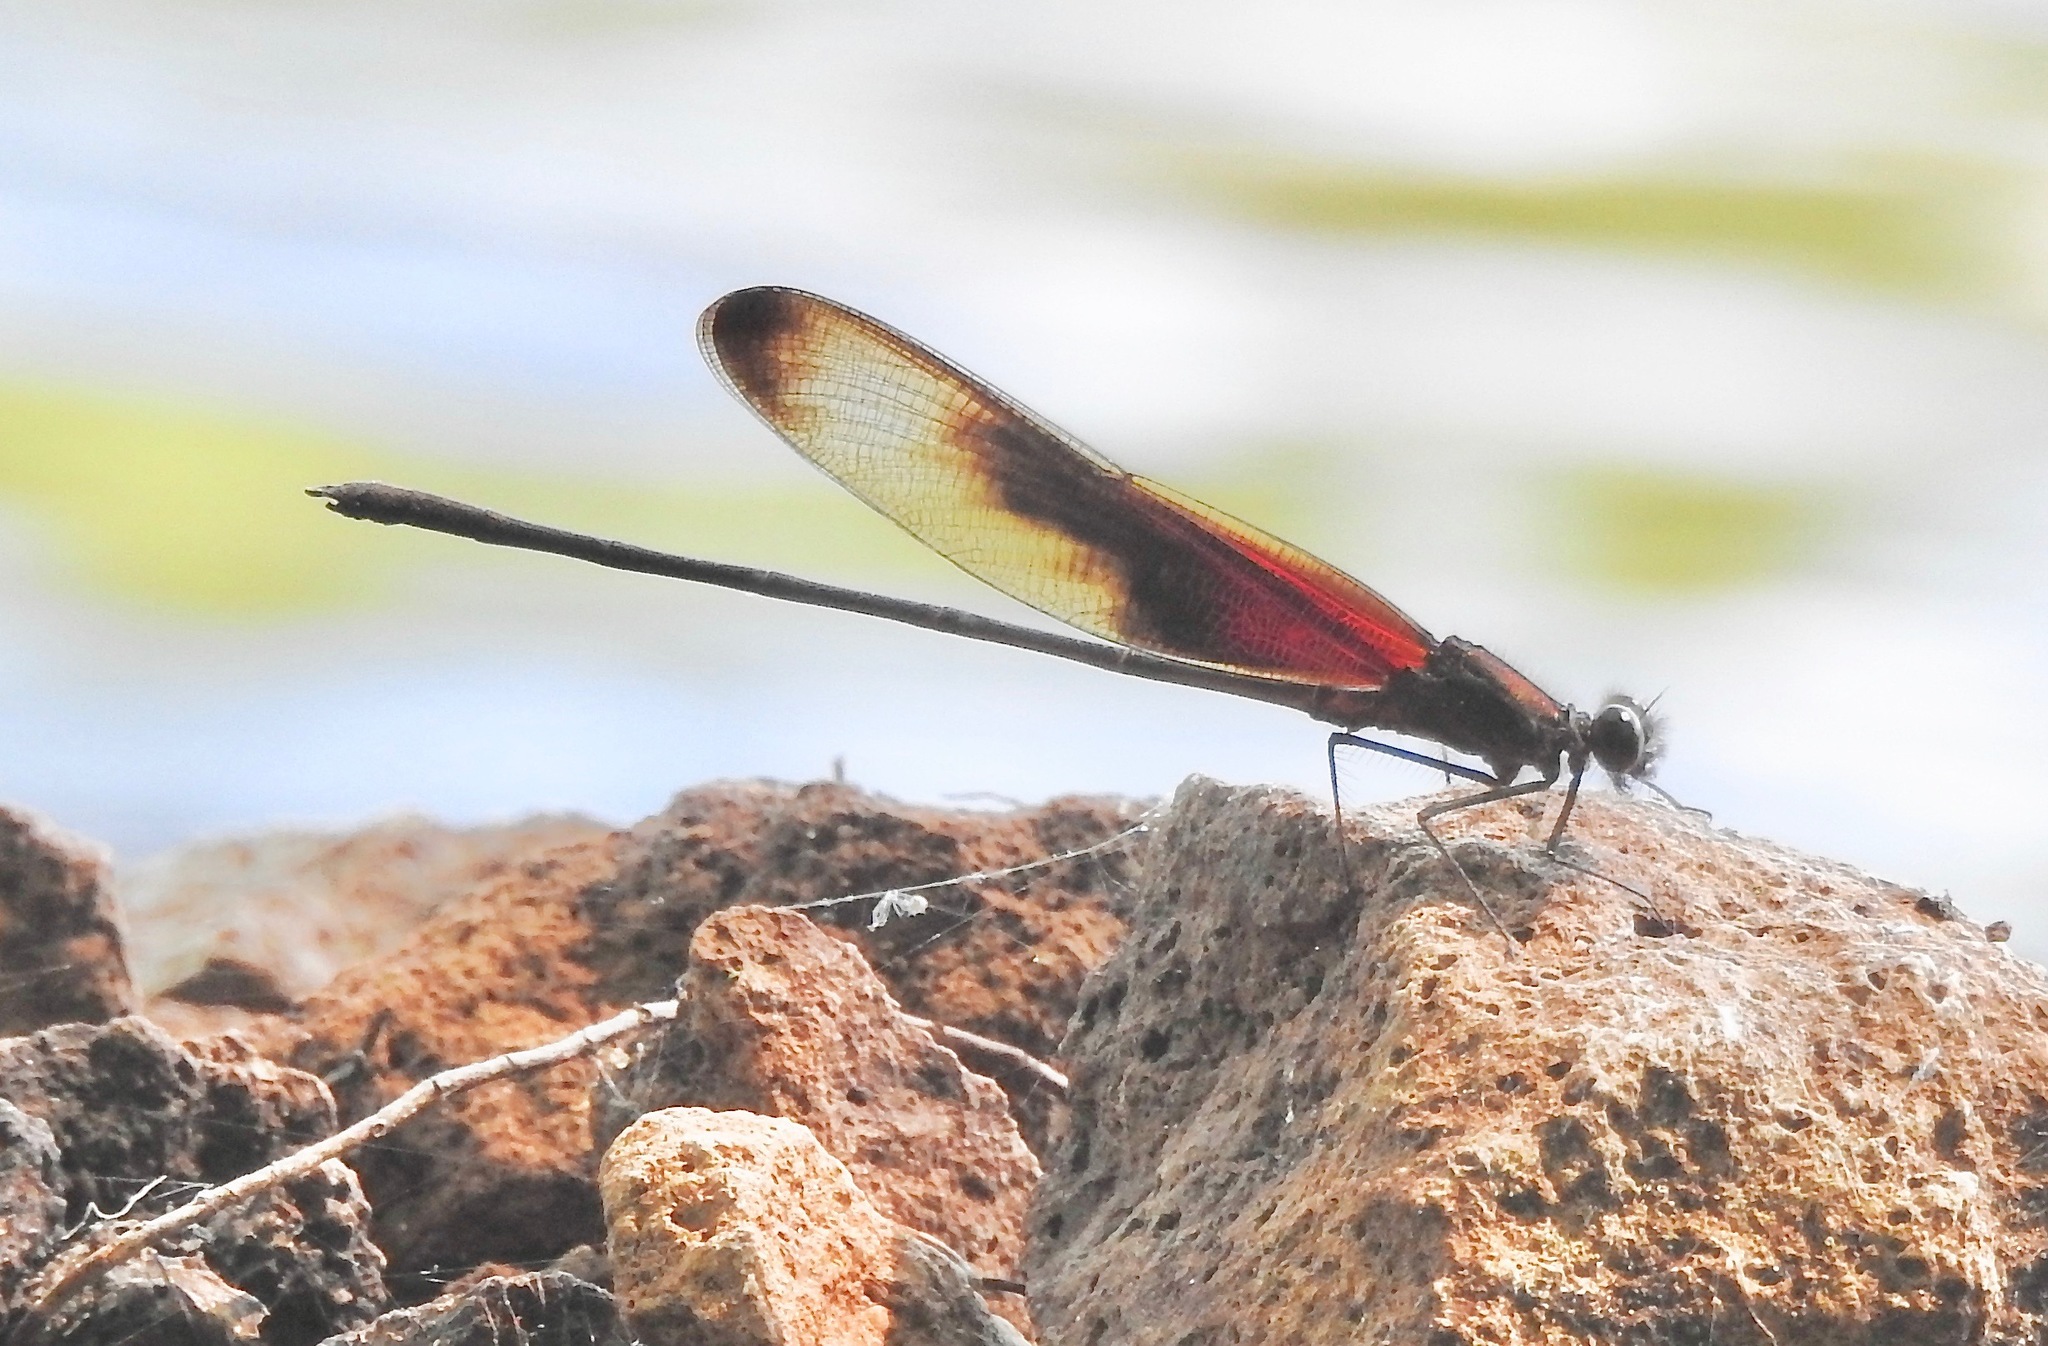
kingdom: Animalia
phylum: Arthropoda
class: Insecta
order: Odonata
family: Calopterygidae
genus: Hetaerina
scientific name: Hetaerina titia
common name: Smoky rubyspot
